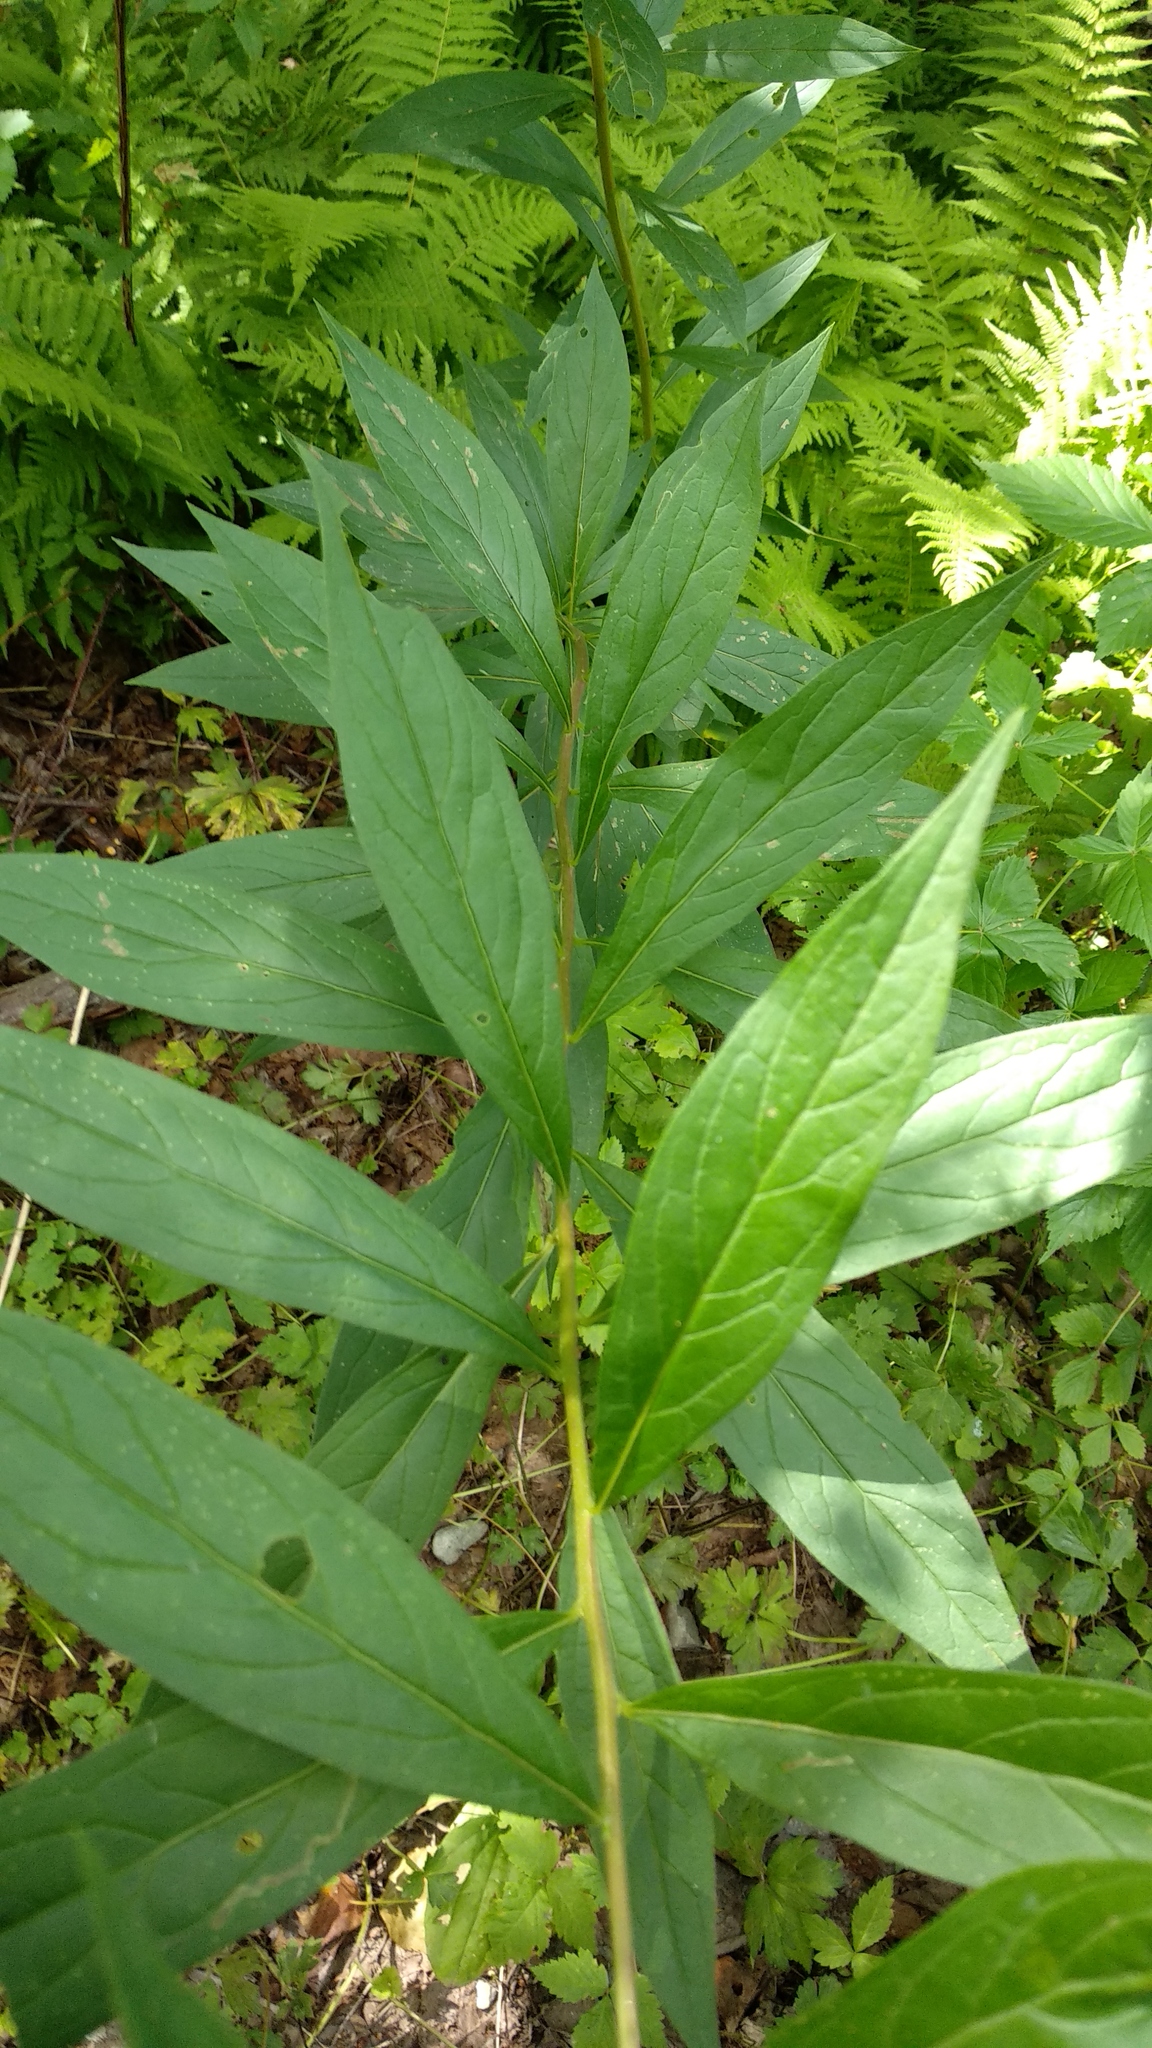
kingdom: Plantae
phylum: Tracheophyta
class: Magnoliopsida
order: Asterales
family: Asteraceae
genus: Doellingeria
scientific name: Doellingeria umbellata
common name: Flat-top white aster
